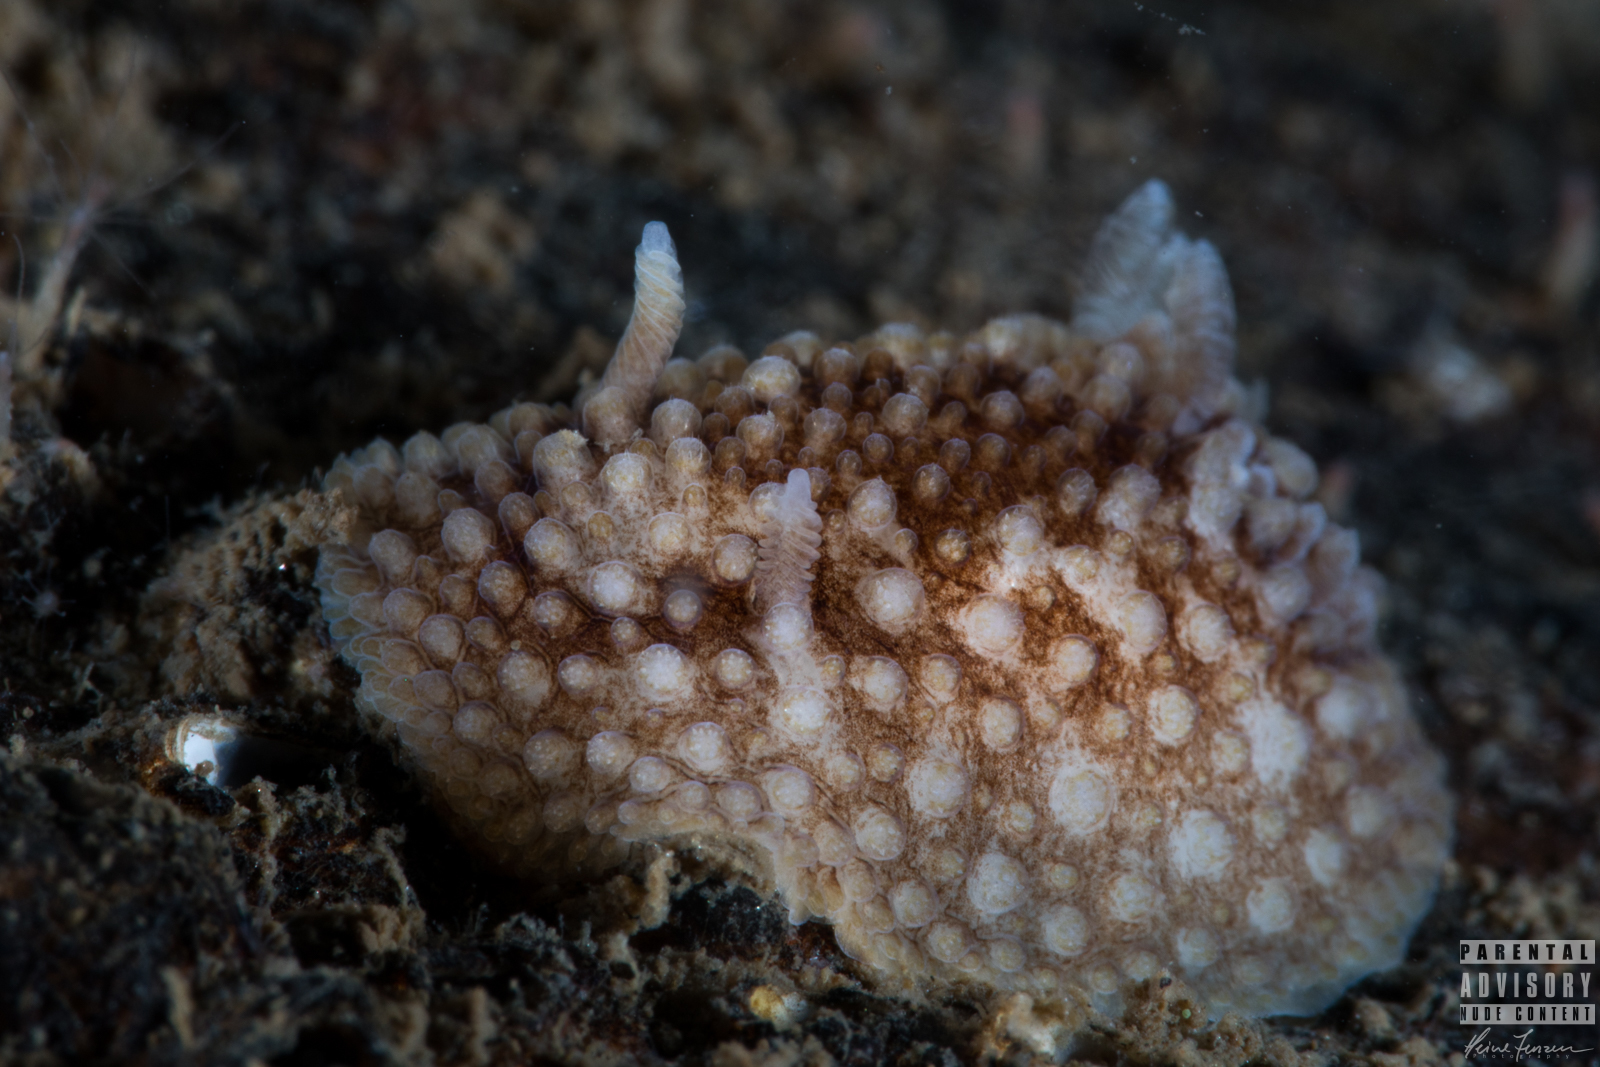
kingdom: Animalia
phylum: Mollusca
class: Gastropoda
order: Nudibranchia
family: Onchidorididae
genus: Onchidoris
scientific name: Onchidoris bilamellata
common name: Barnacle-eating onchidoris
